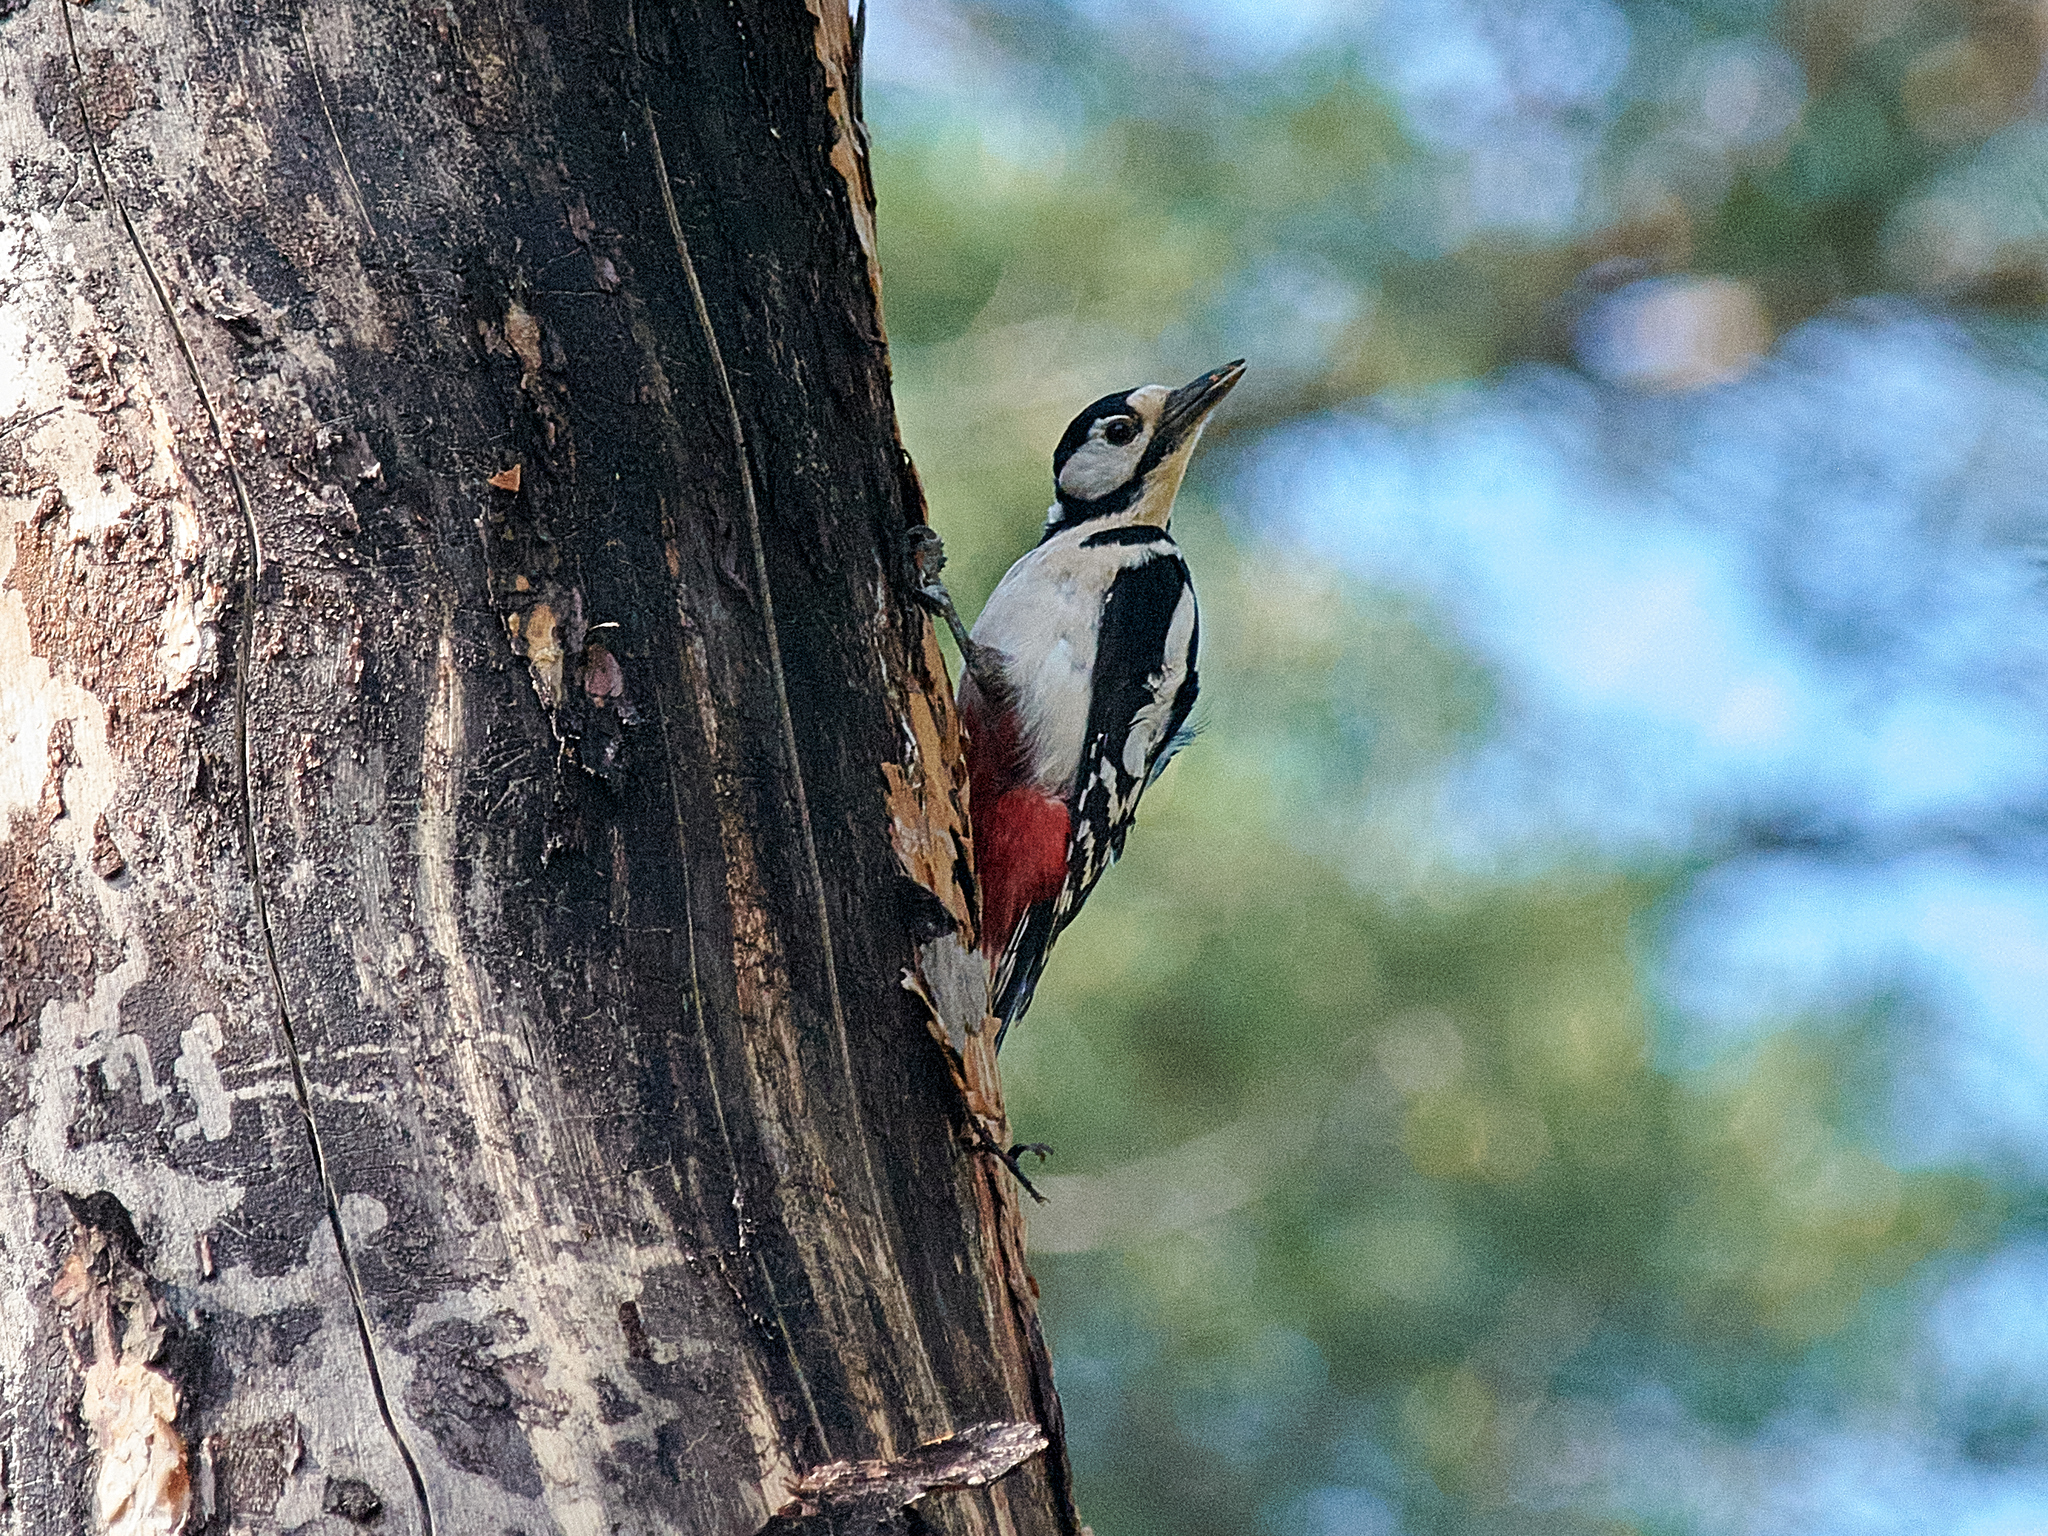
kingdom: Animalia
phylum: Chordata
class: Aves
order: Piciformes
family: Picidae
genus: Dendrocopos
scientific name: Dendrocopos major
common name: Great spotted woodpecker
